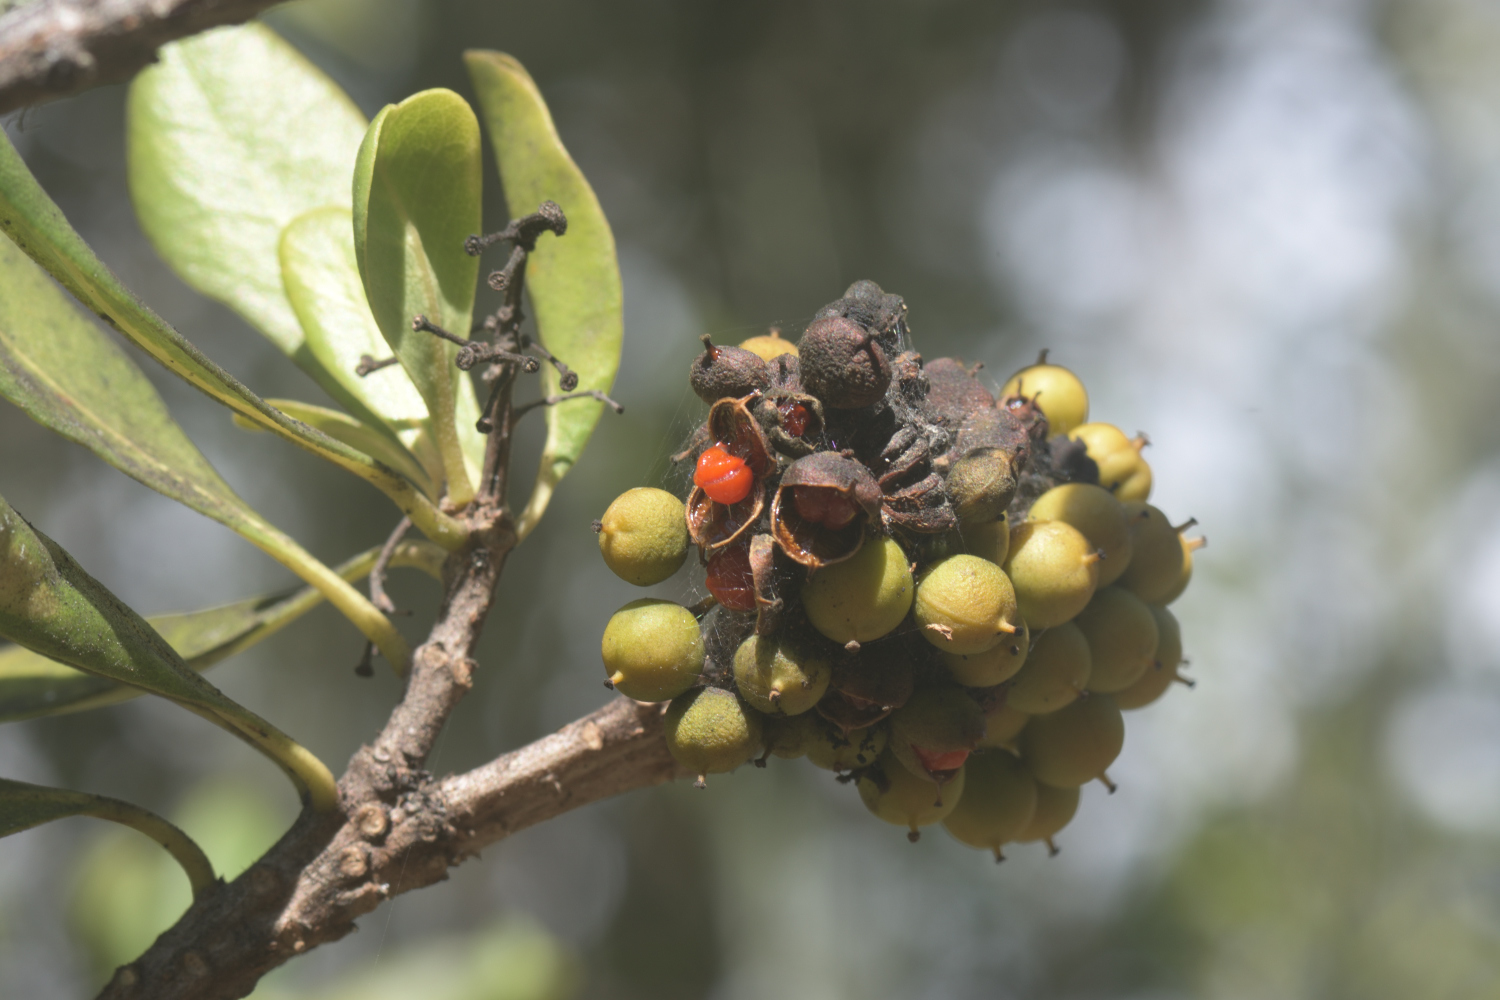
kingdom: Plantae
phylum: Tracheophyta
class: Magnoliopsida
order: Apiales
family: Pittosporaceae
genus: Pittosporum
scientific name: Pittosporum viridiflorum
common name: Cape cheesewood
